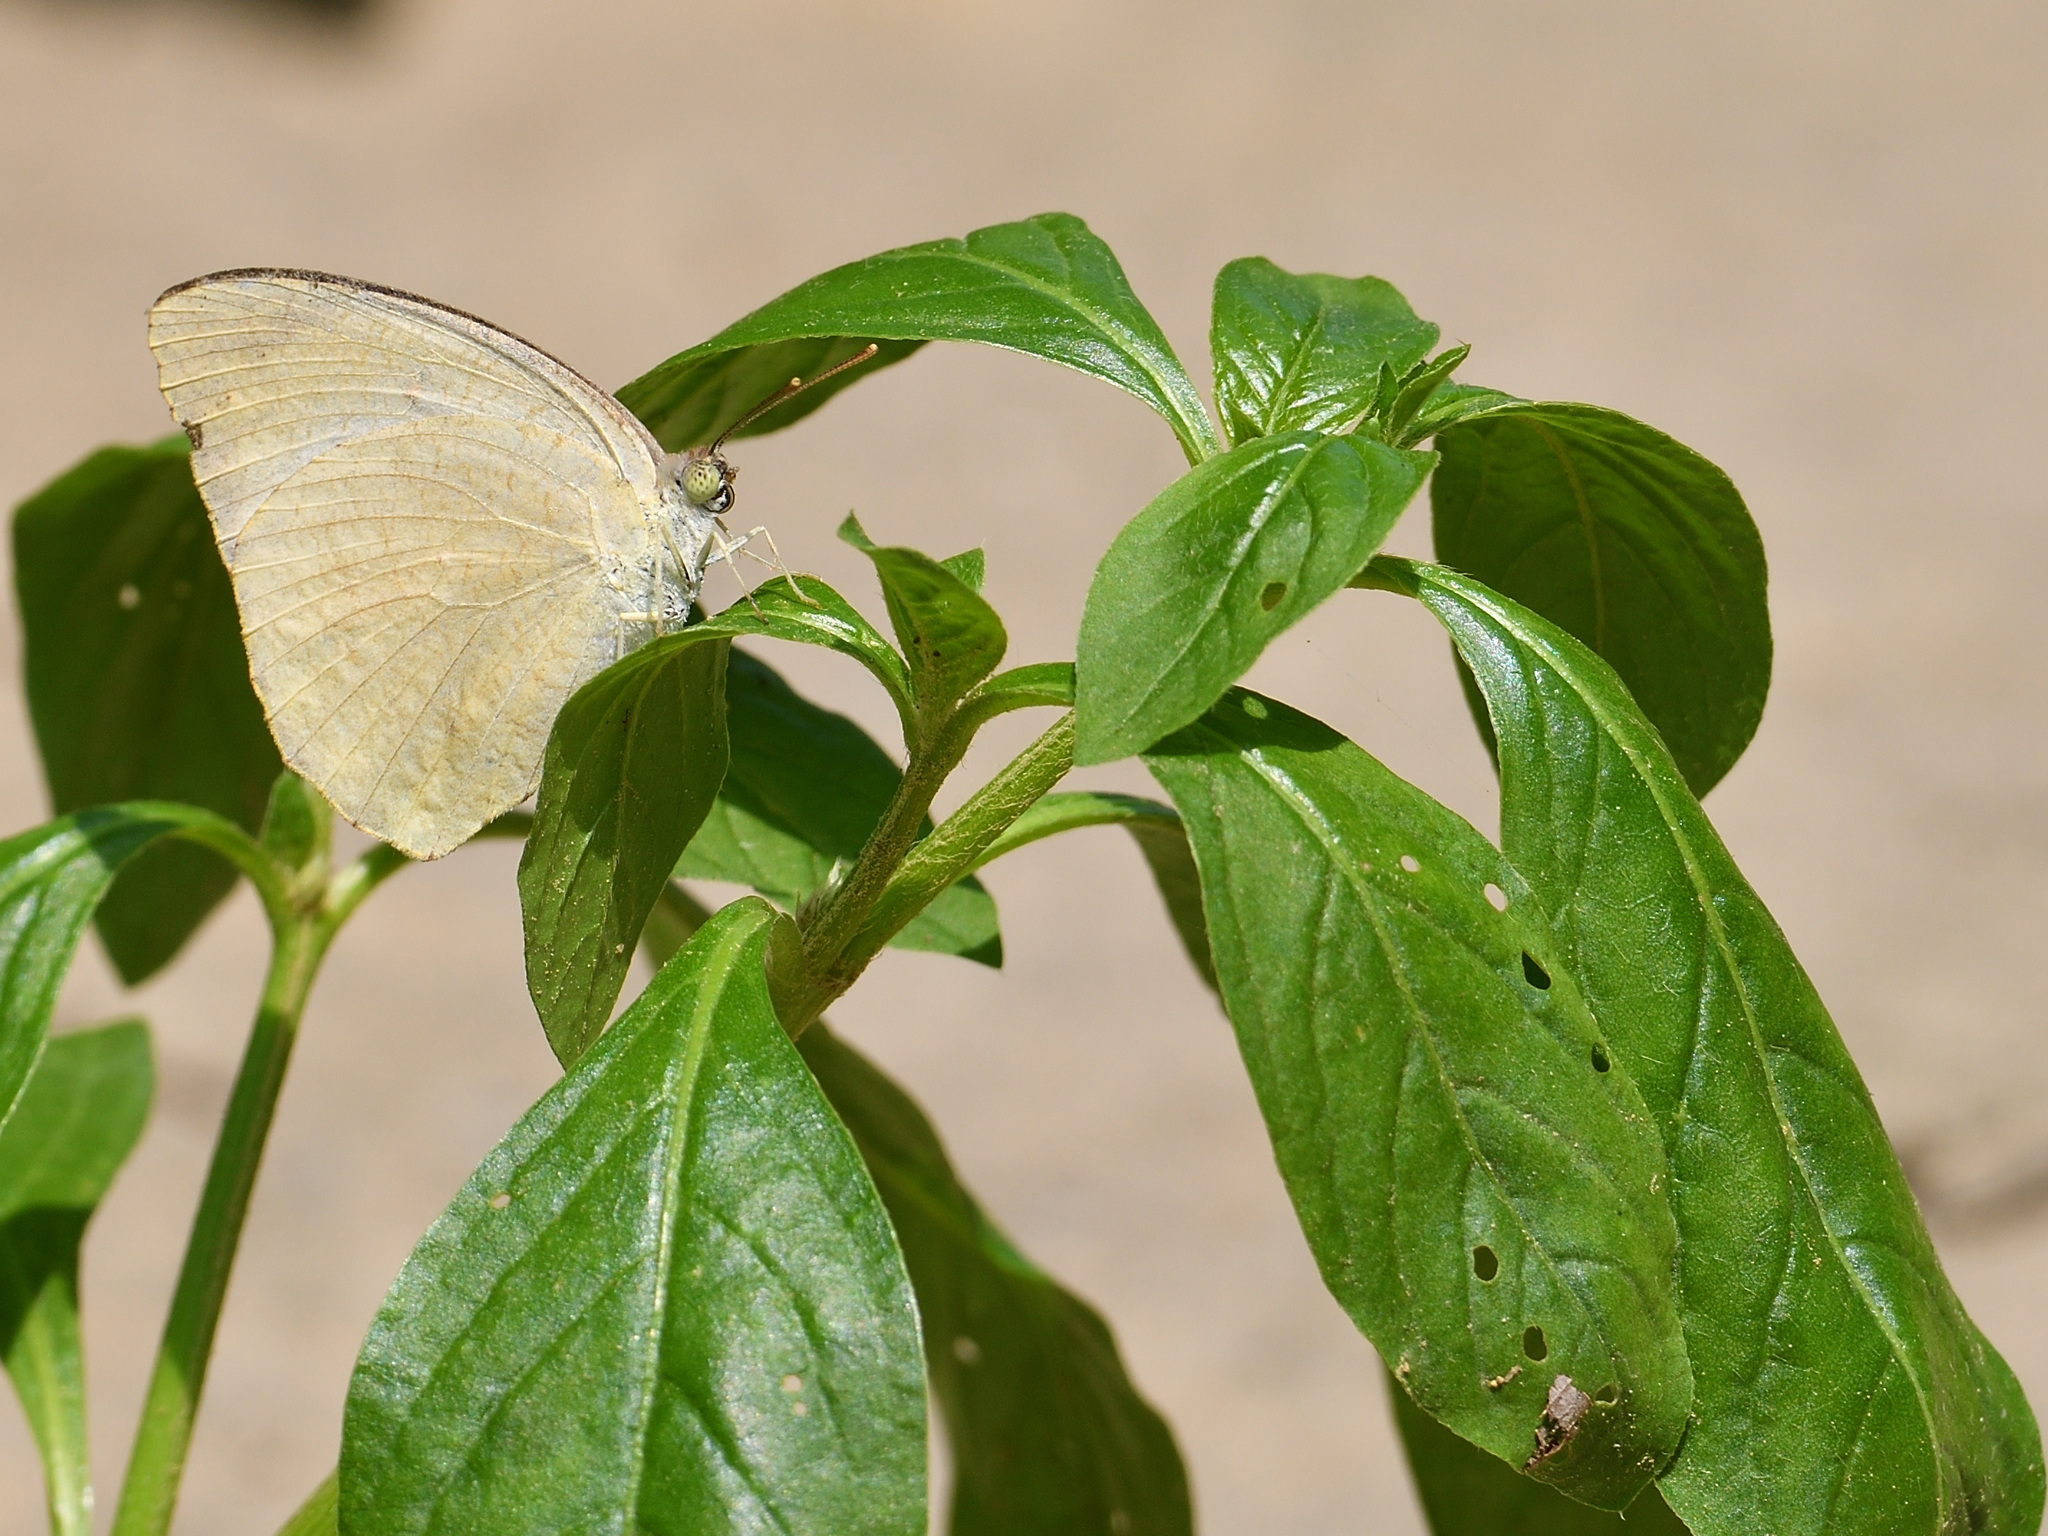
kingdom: Animalia
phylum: Arthropoda
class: Insecta
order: Lepidoptera
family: Pieridae
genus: Catopsilia
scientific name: Catopsilia pyranthe
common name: Mottled emigrant
